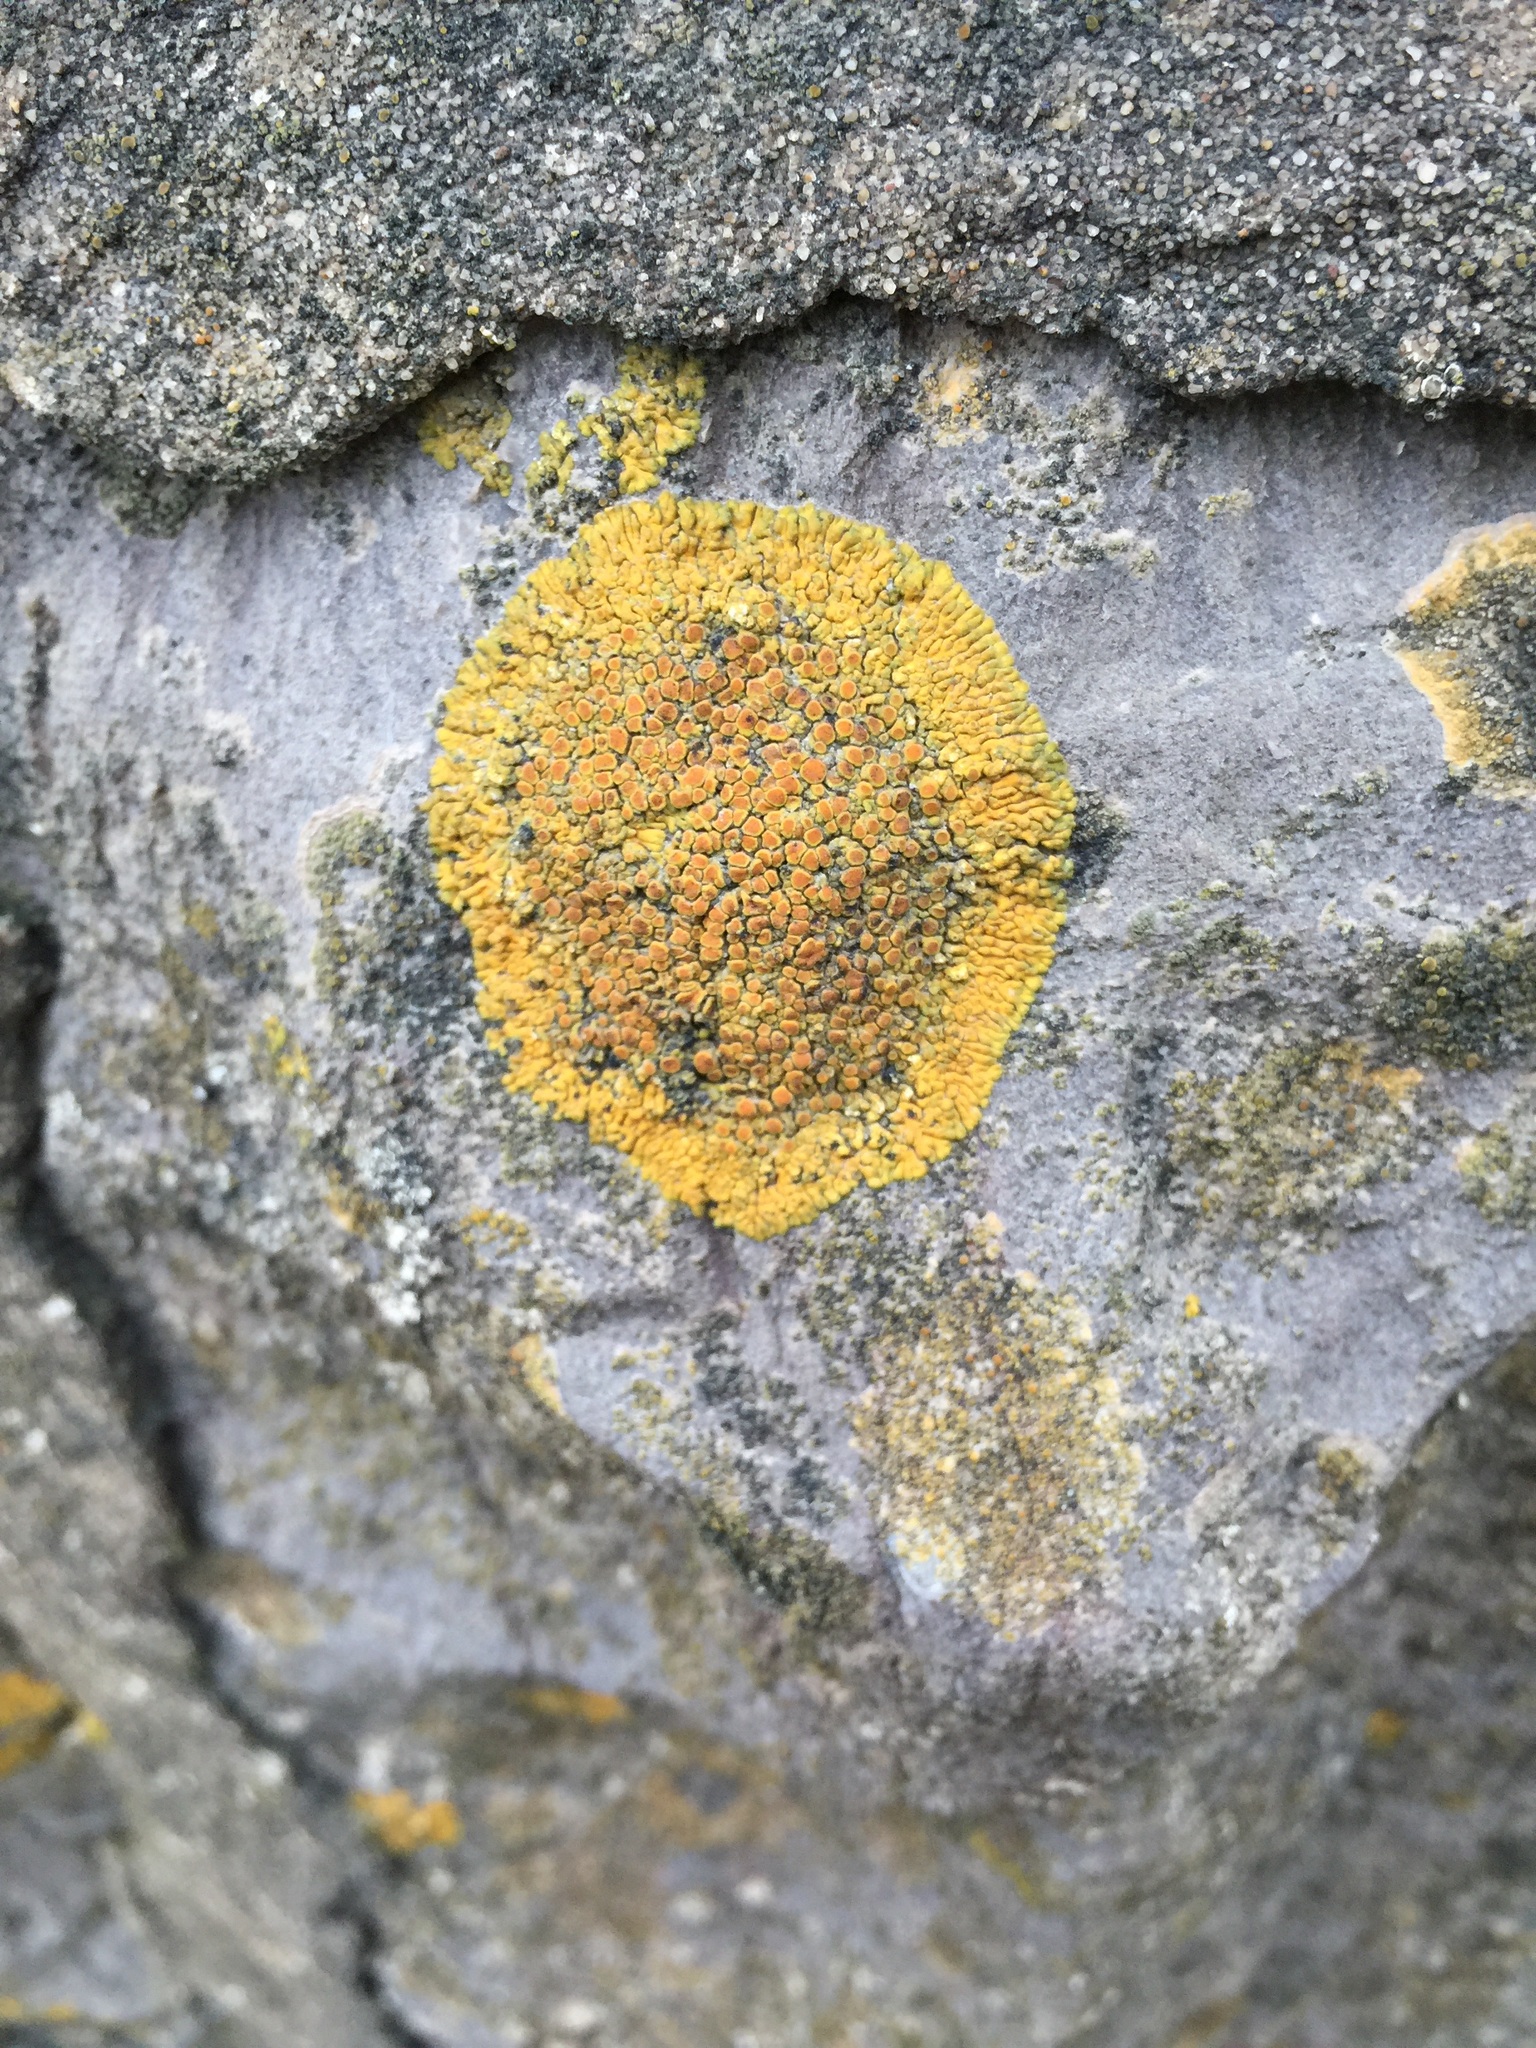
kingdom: Fungi
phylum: Ascomycota
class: Lecanoromycetes
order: Teloschistales
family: Teloschistaceae
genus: Variospora
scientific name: Variospora flavescens
